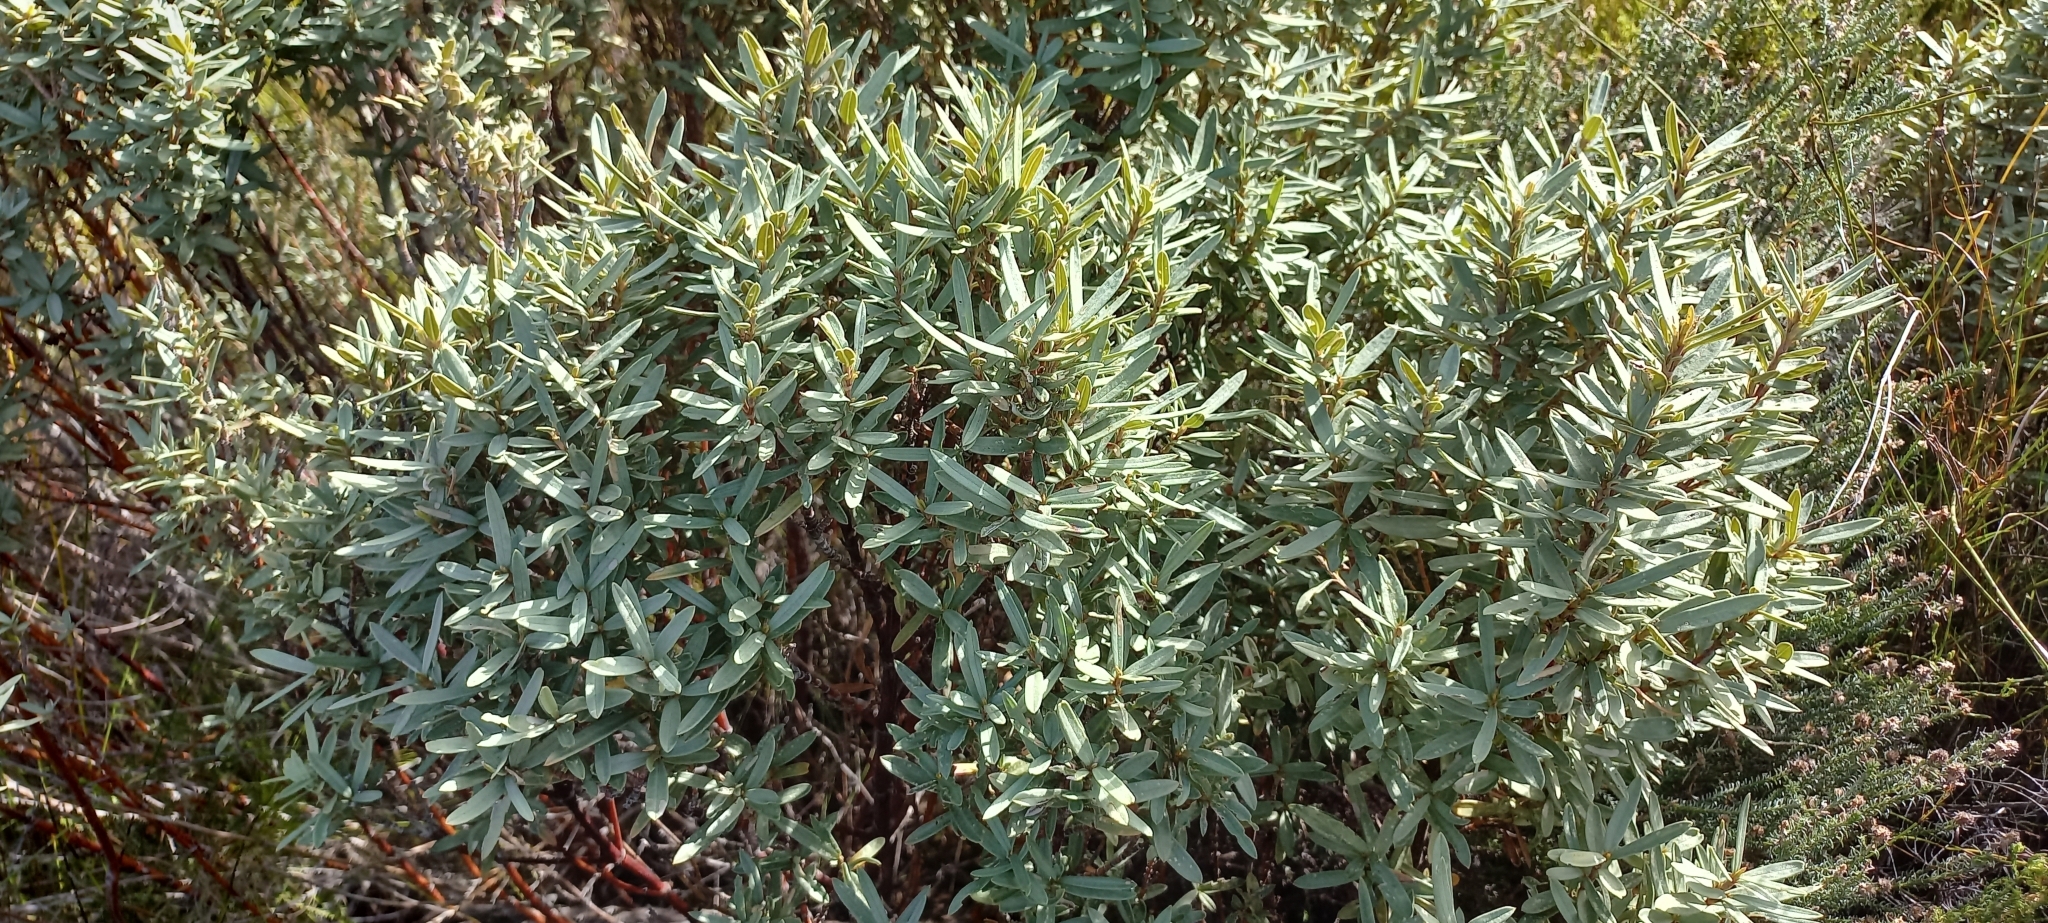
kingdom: Plantae
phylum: Tracheophyta
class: Magnoliopsida
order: Cornales
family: Grubbiaceae
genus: Grubbia
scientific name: Grubbia tomentosa
